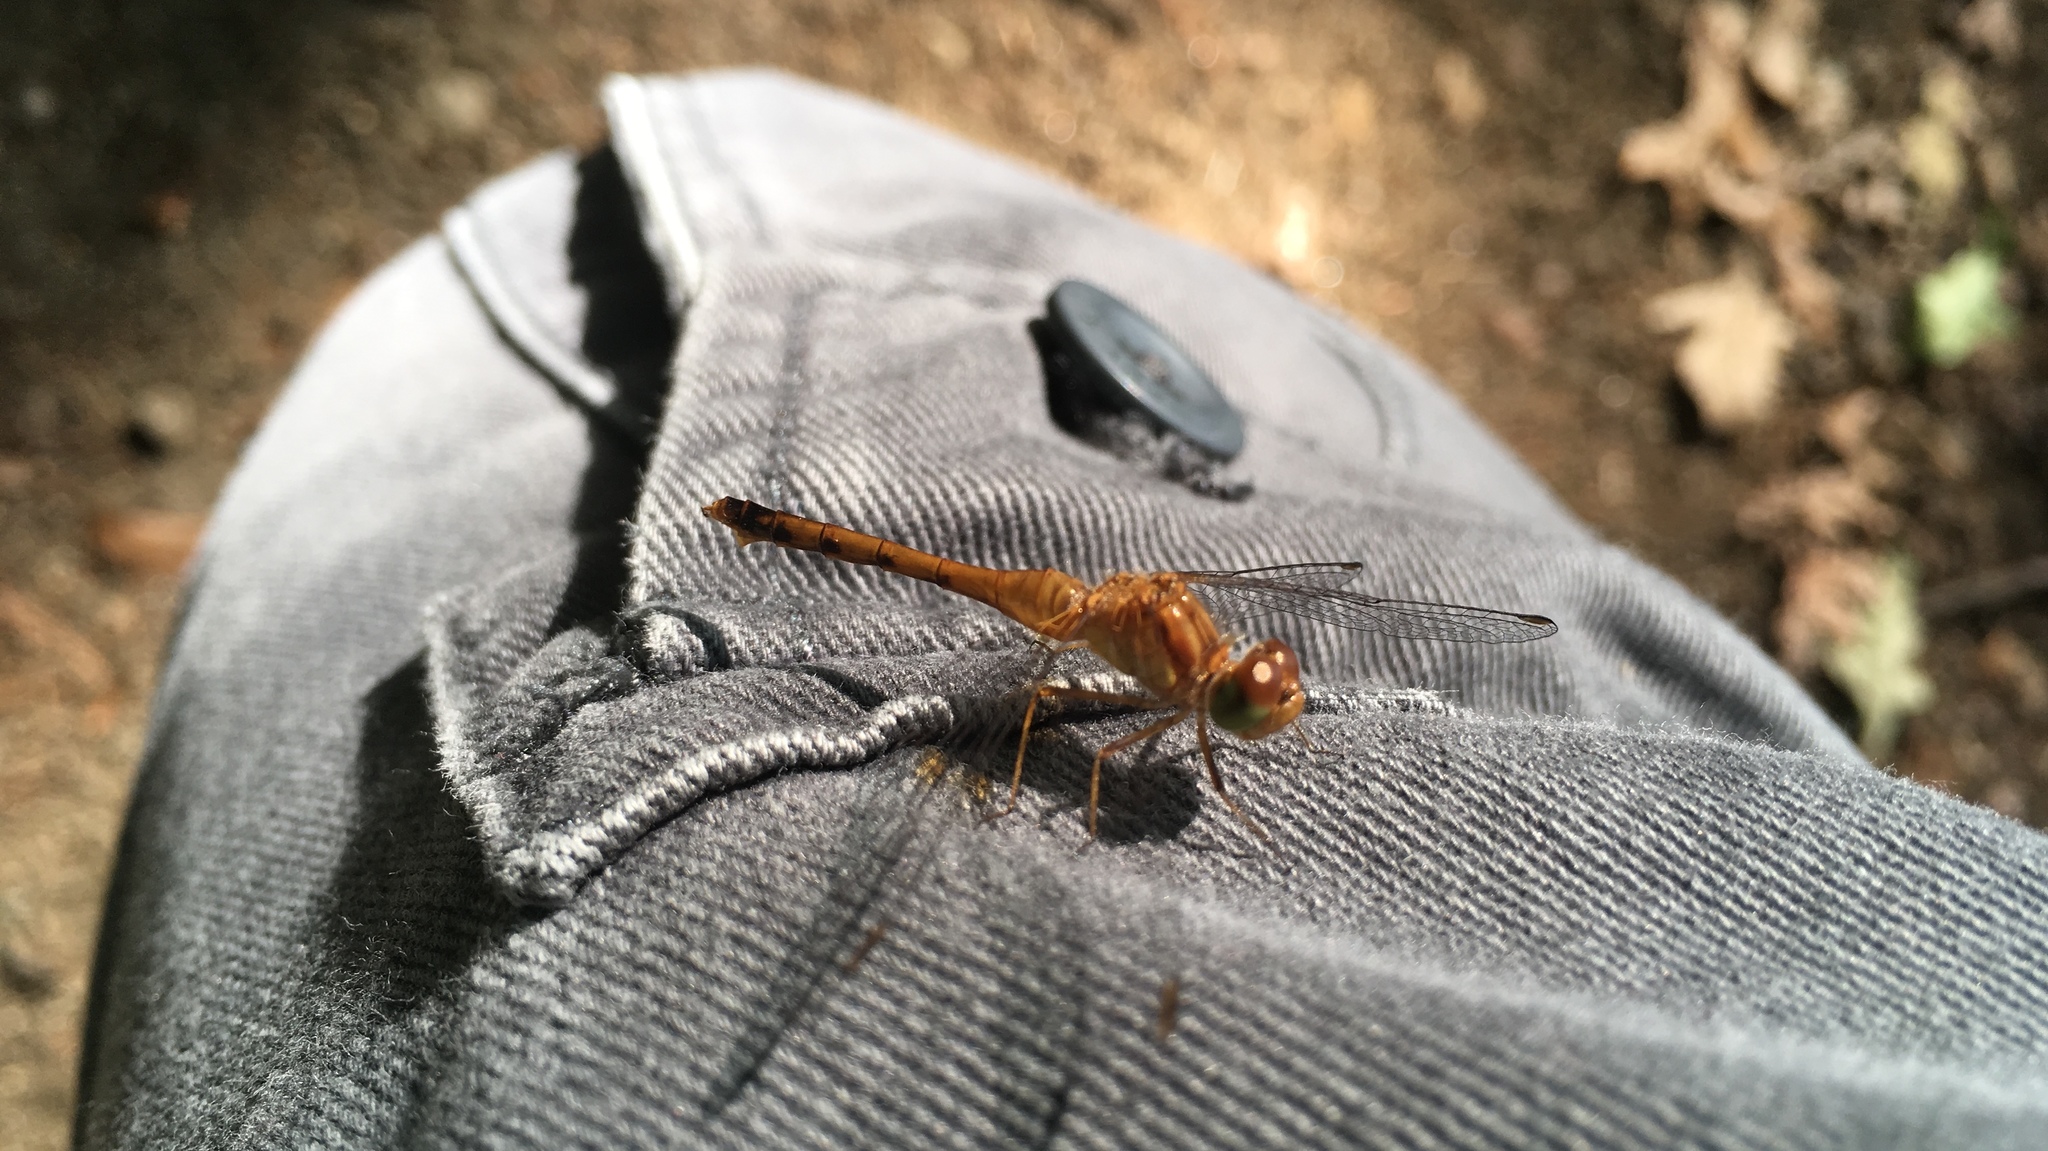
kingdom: Animalia
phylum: Arthropoda
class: Insecta
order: Odonata
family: Libellulidae
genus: Sympetrum
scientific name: Sympetrum vicinum
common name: Autumn meadowhawk
